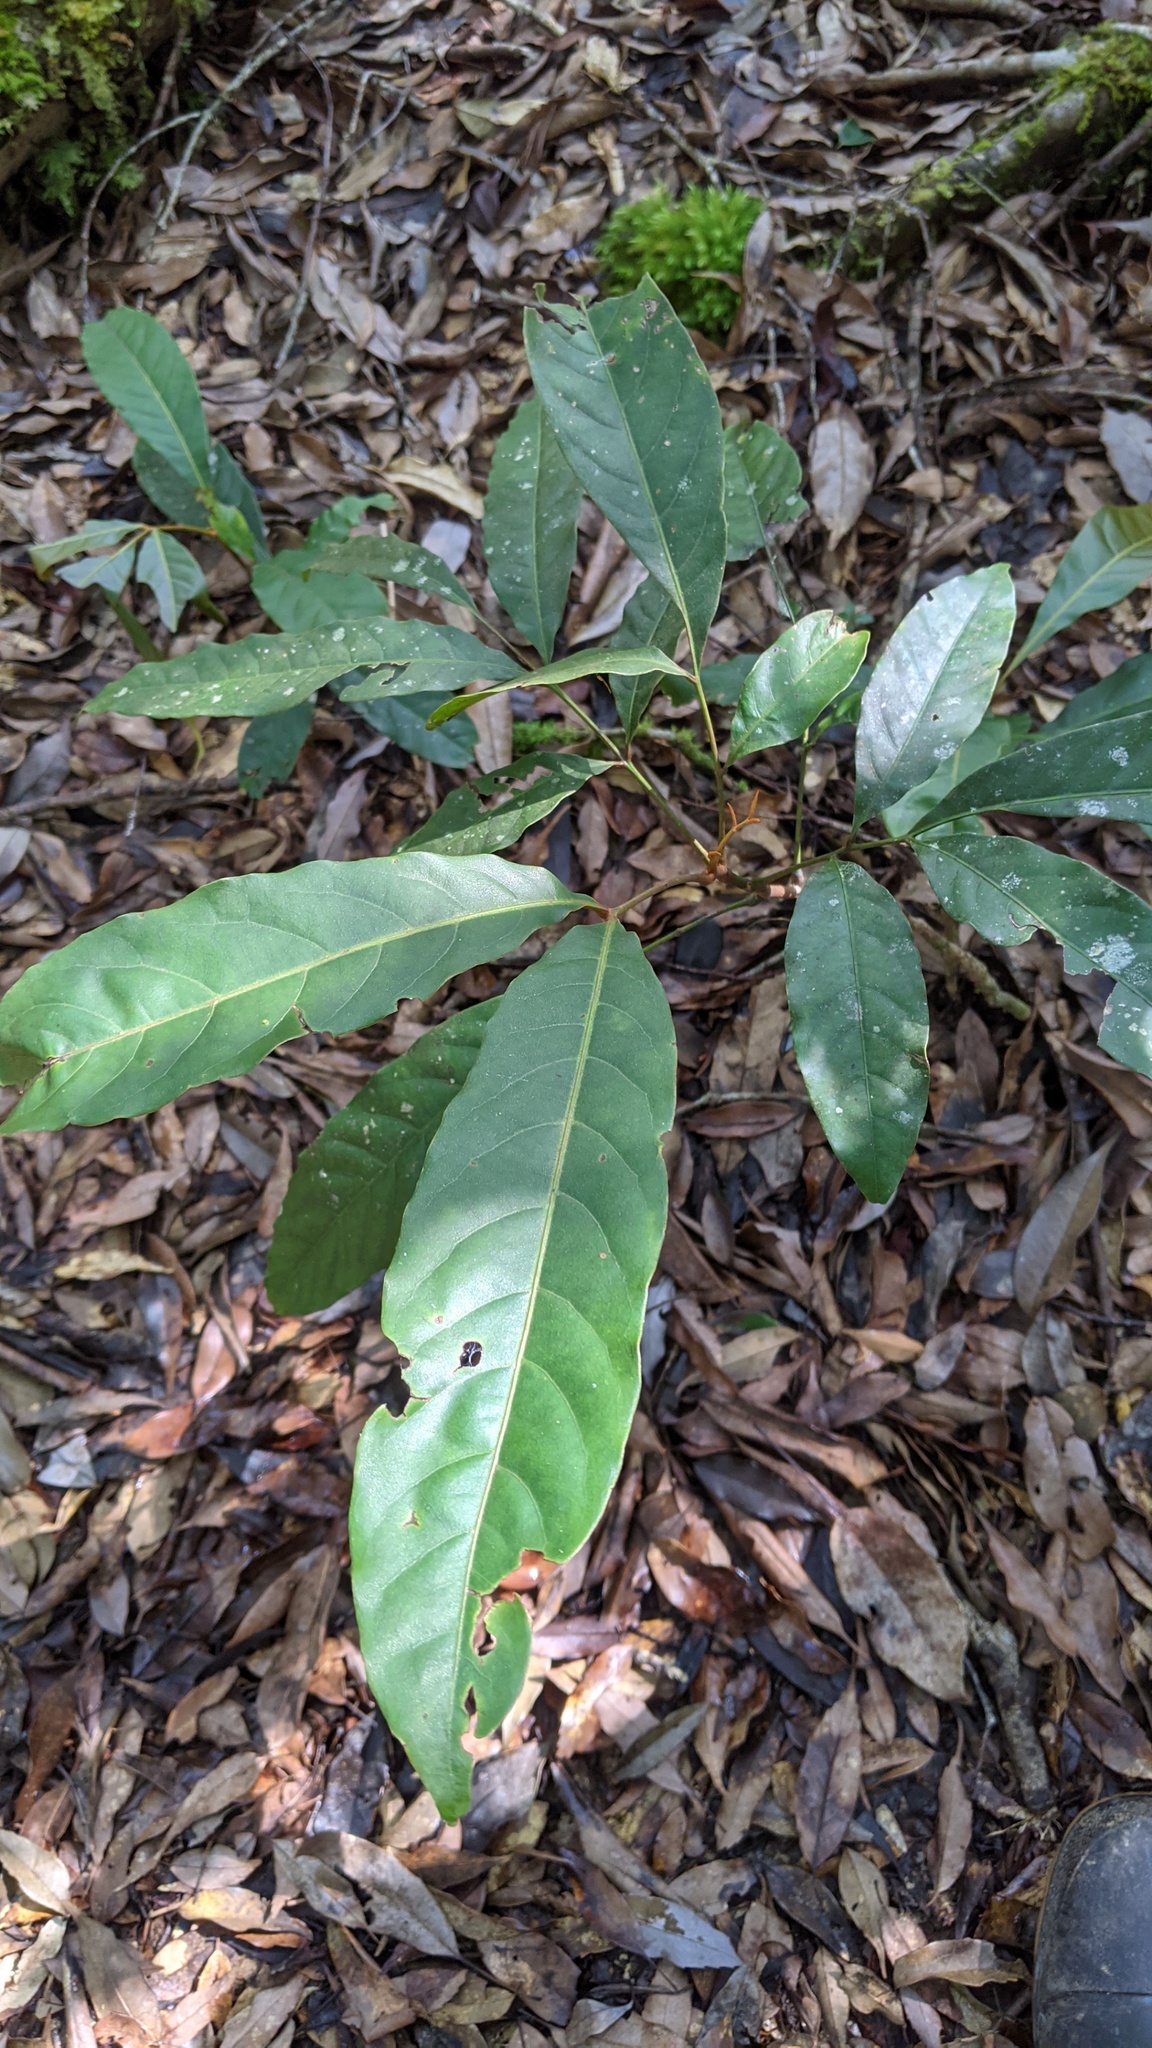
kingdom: Plantae
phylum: Tracheophyta
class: Magnoliopsida
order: Fagales
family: Juglandaceae
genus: Engelhardia
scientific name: Engelhardia roxburghiana
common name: Golden malay beam
